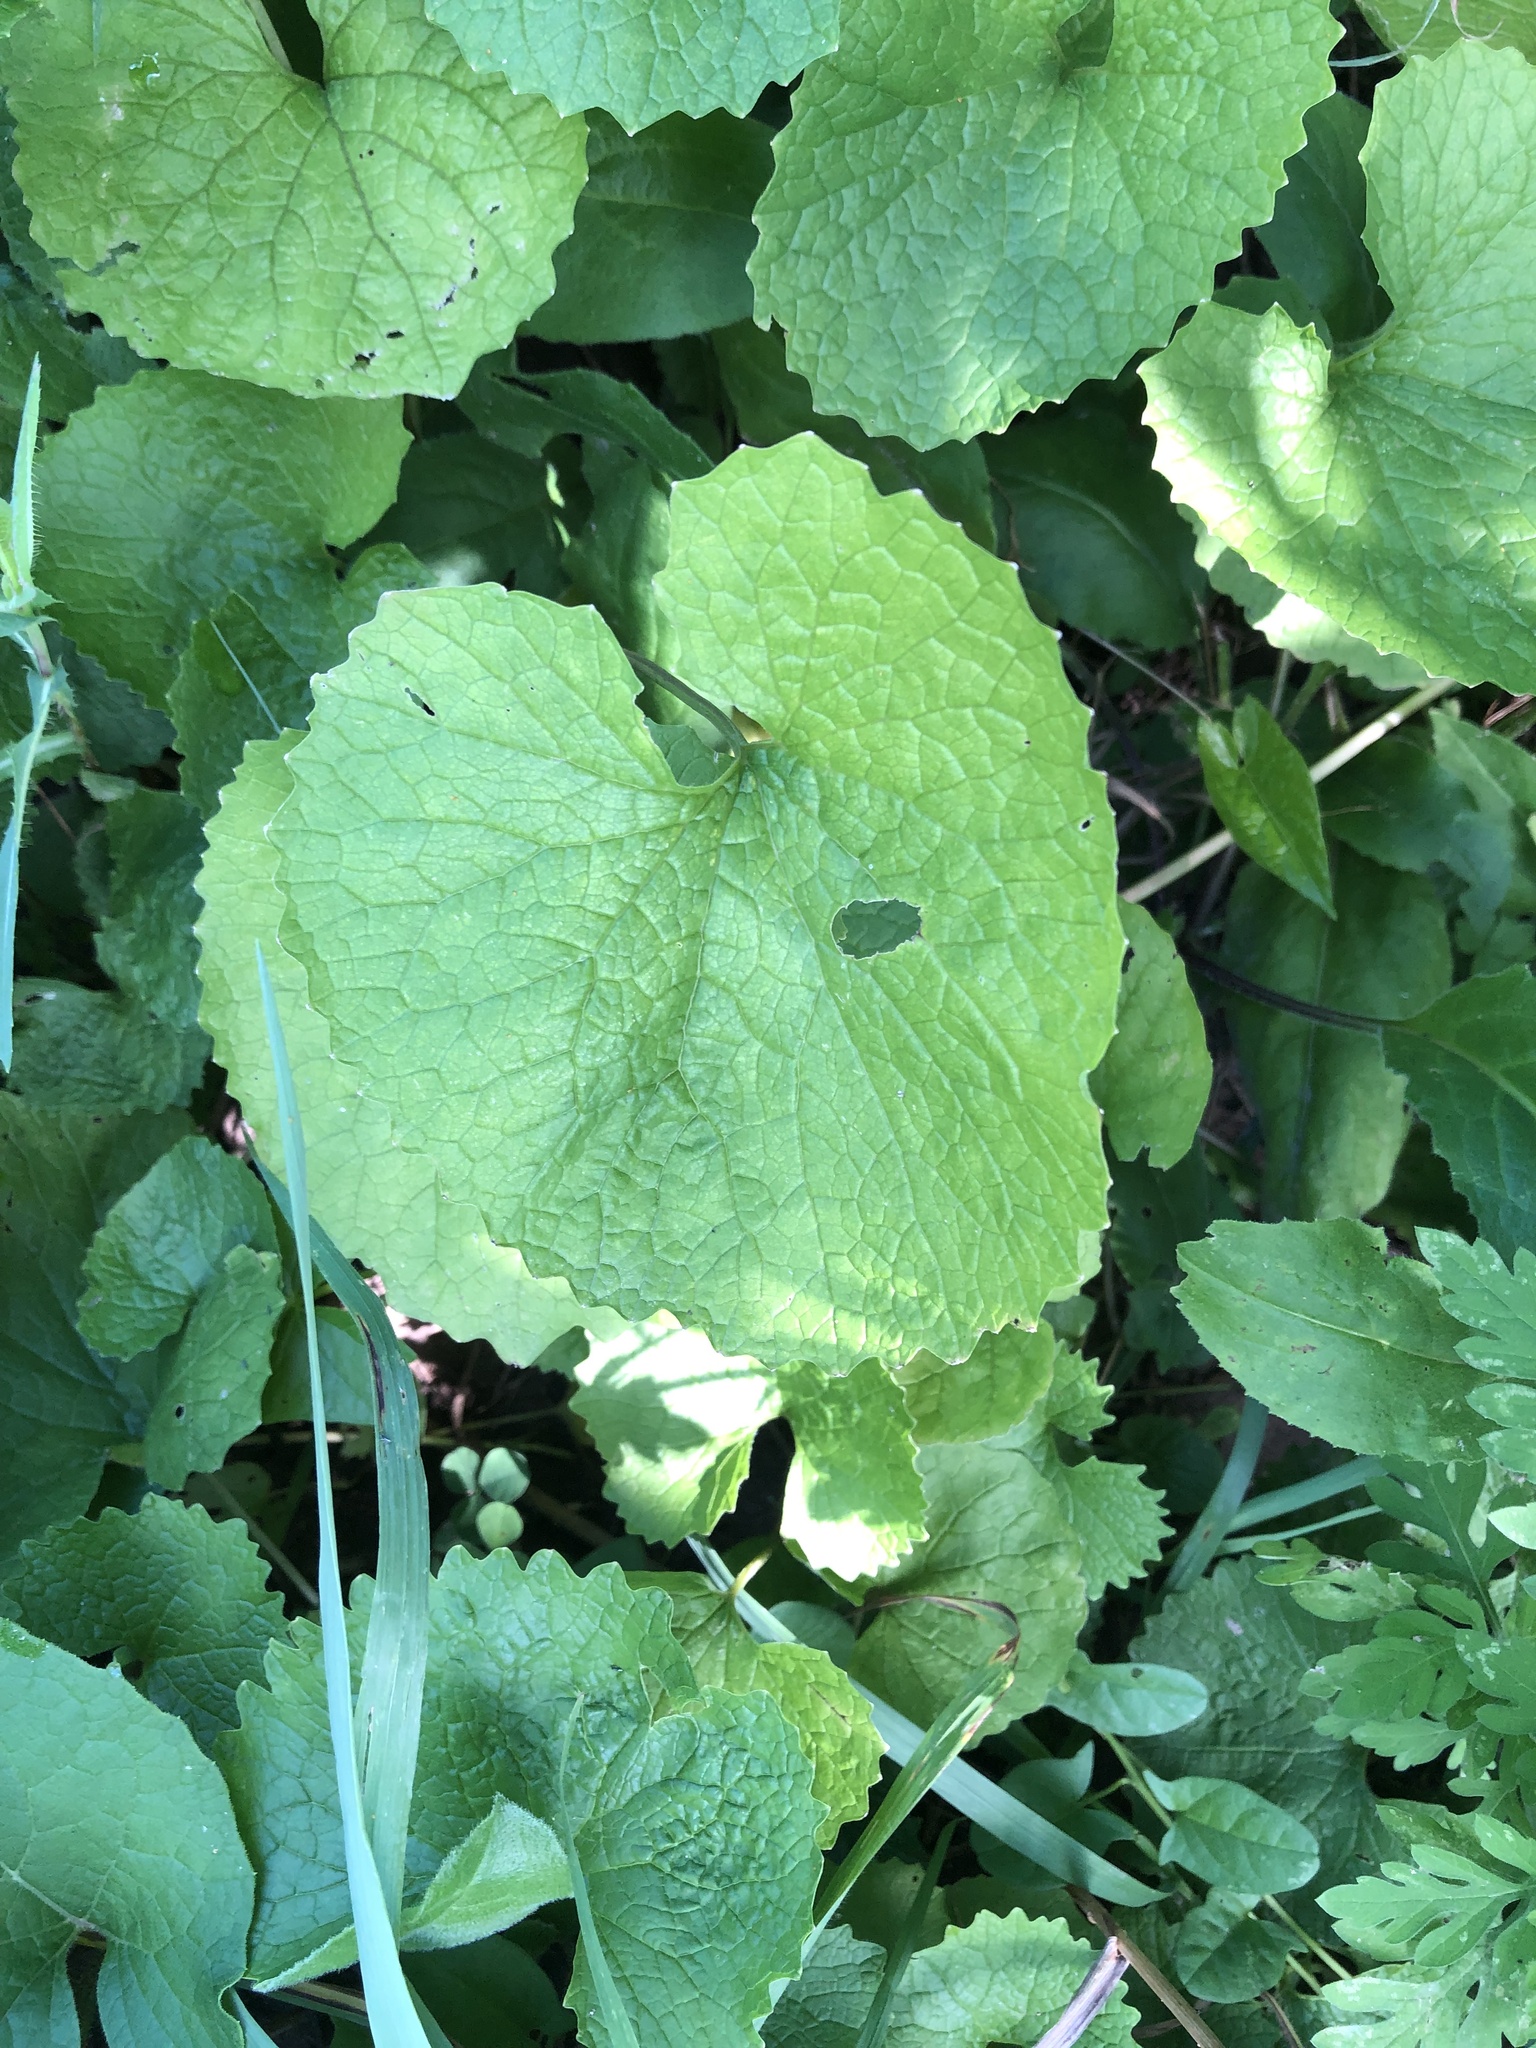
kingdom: Plantae
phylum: Tracheophyta
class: Magnoliopsida
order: Brassicales
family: Brassicaceae
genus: Alliaria
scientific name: Alliaria petiolata
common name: Garlic mustard
